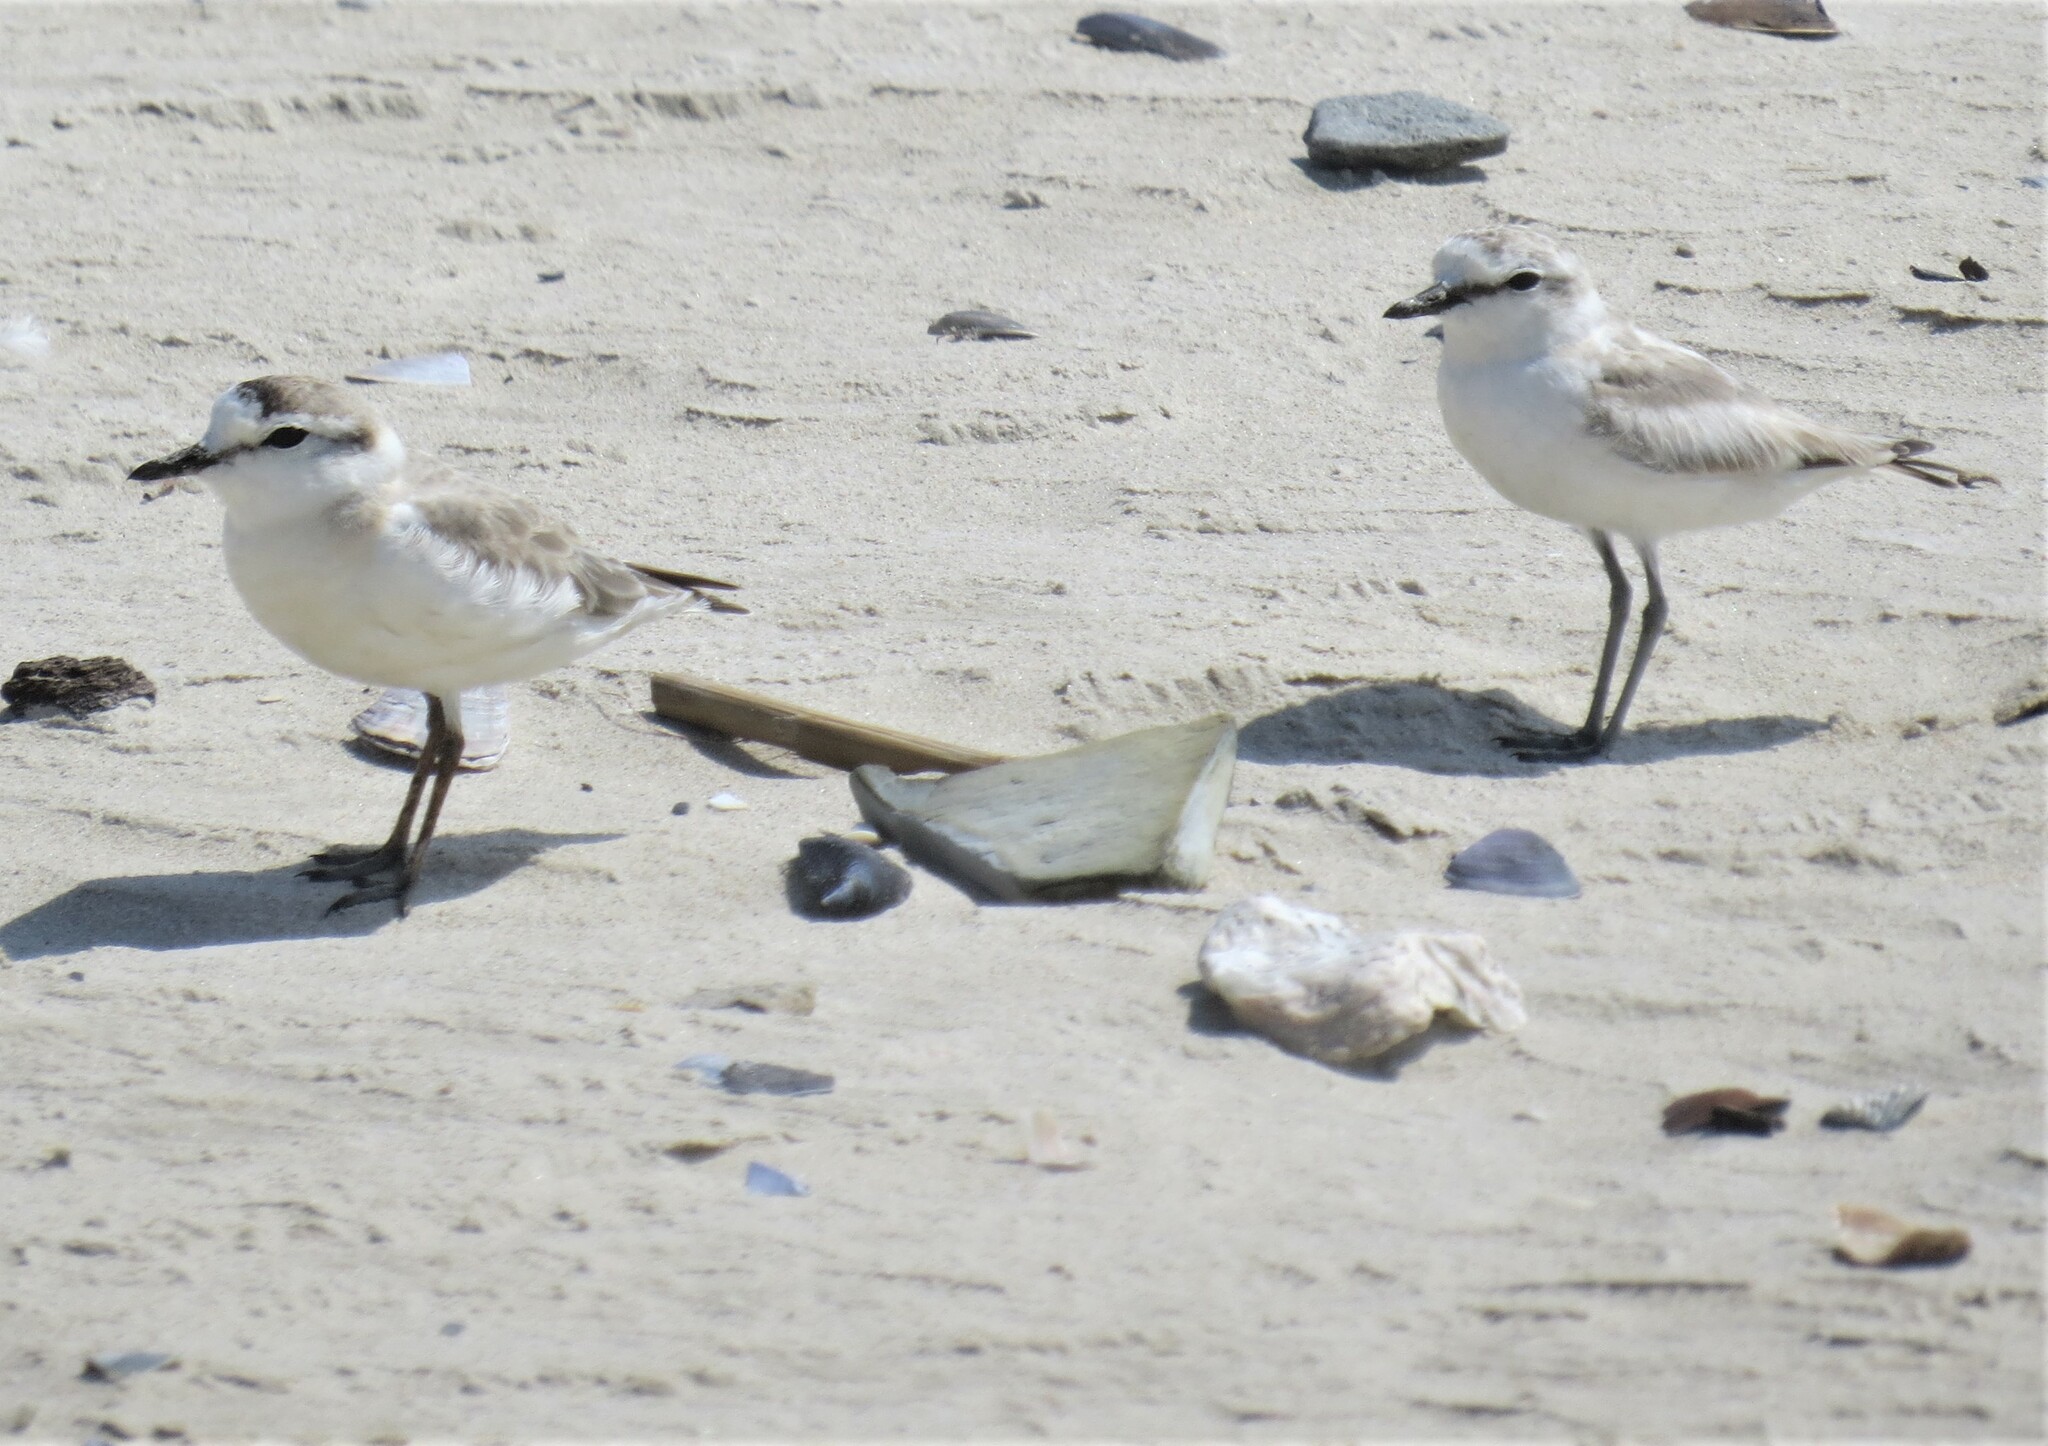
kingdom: Animalia
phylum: Chordata
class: Aves
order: Charadriiformes
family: Charadriidae
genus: Anarhynchus
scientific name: Anarhynchus
